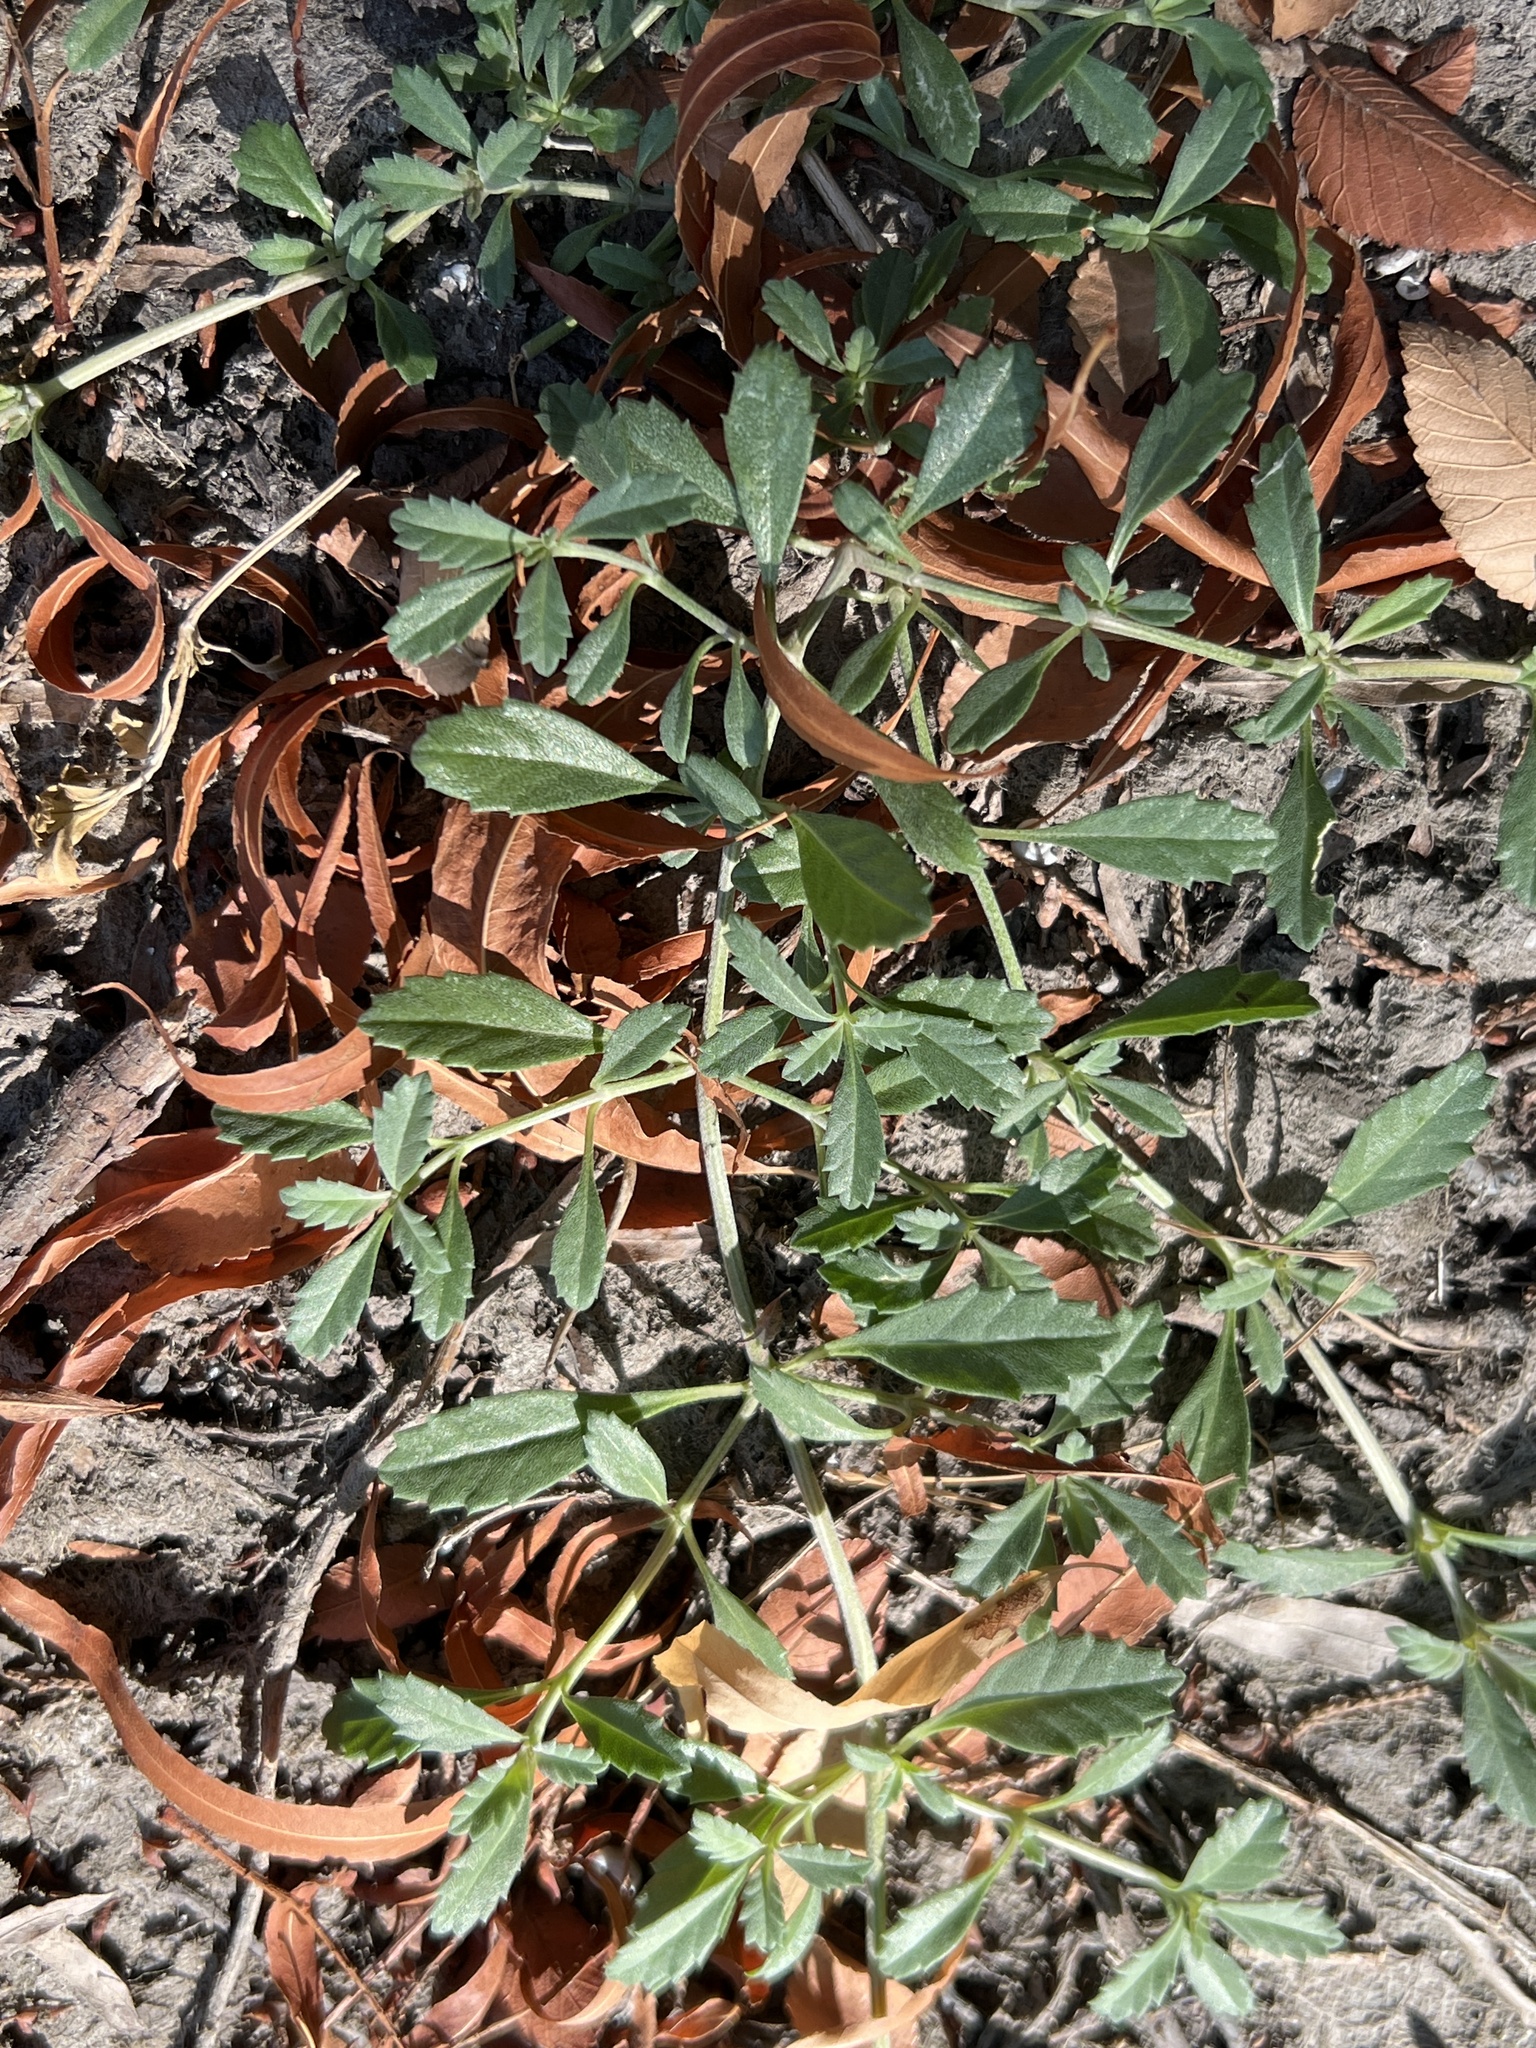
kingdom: Plantae
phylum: Tracheophyta
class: Magnoliopsida
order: Lamiales
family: Verbenaceae
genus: Phyla
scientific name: Phyla nodiflora
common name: Frogfruit
